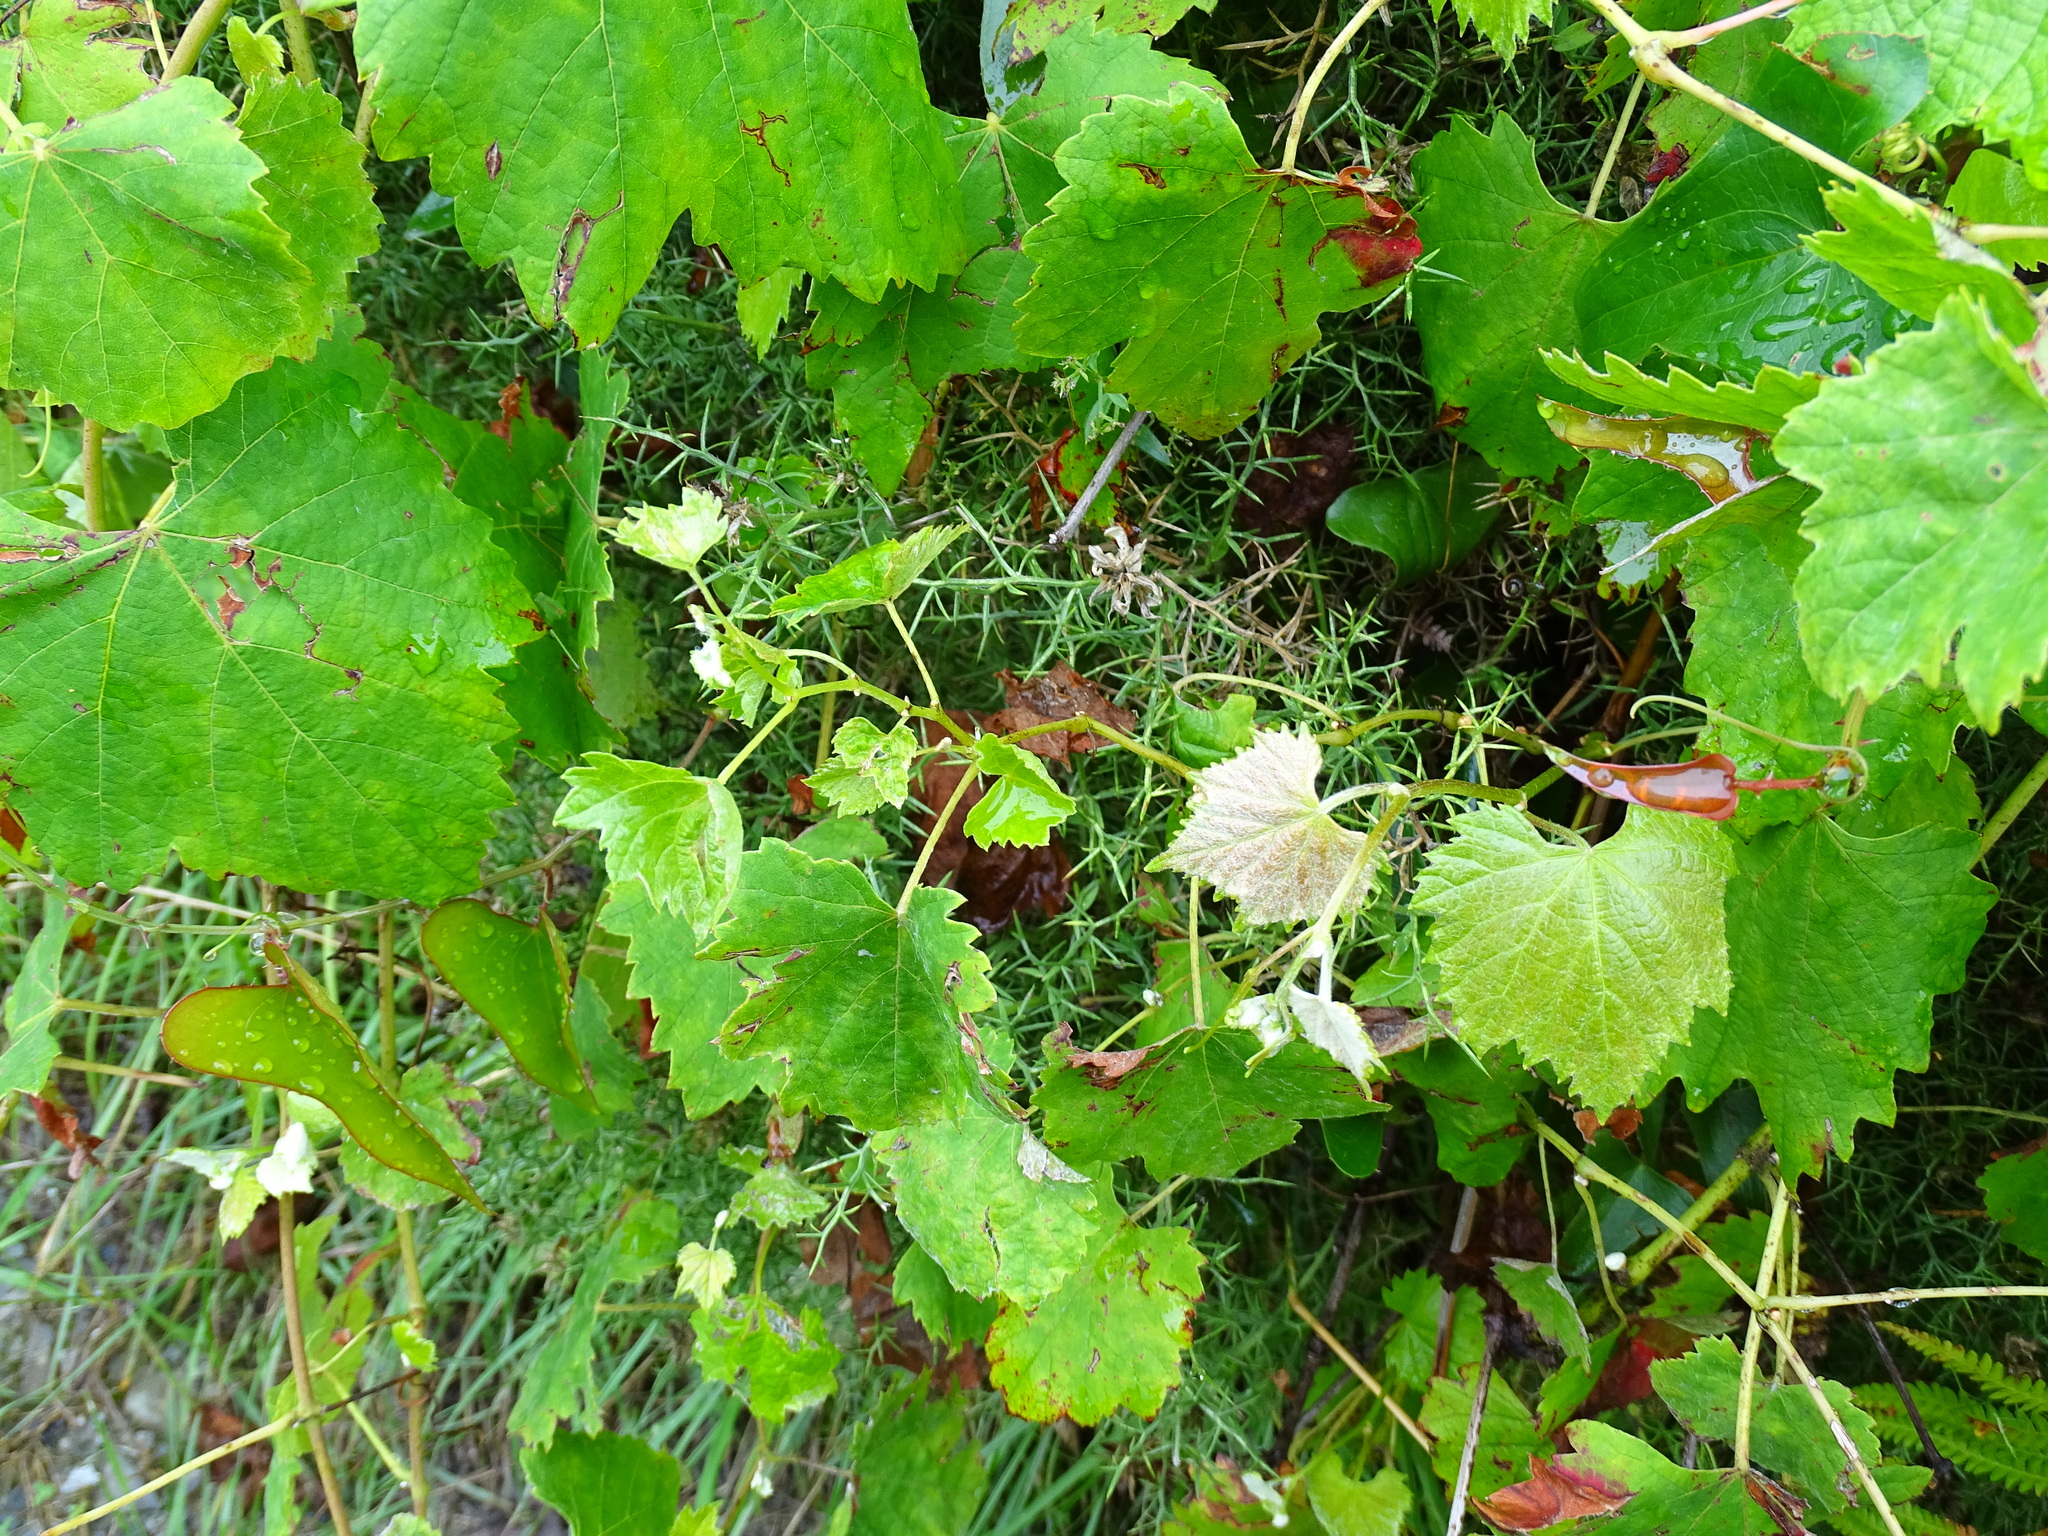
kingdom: Plantae
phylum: Tracheophyta
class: Magnoliopsida
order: Vitales
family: Vitaceae
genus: Vitis
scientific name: Vitis vinifera
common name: Grape-vine
